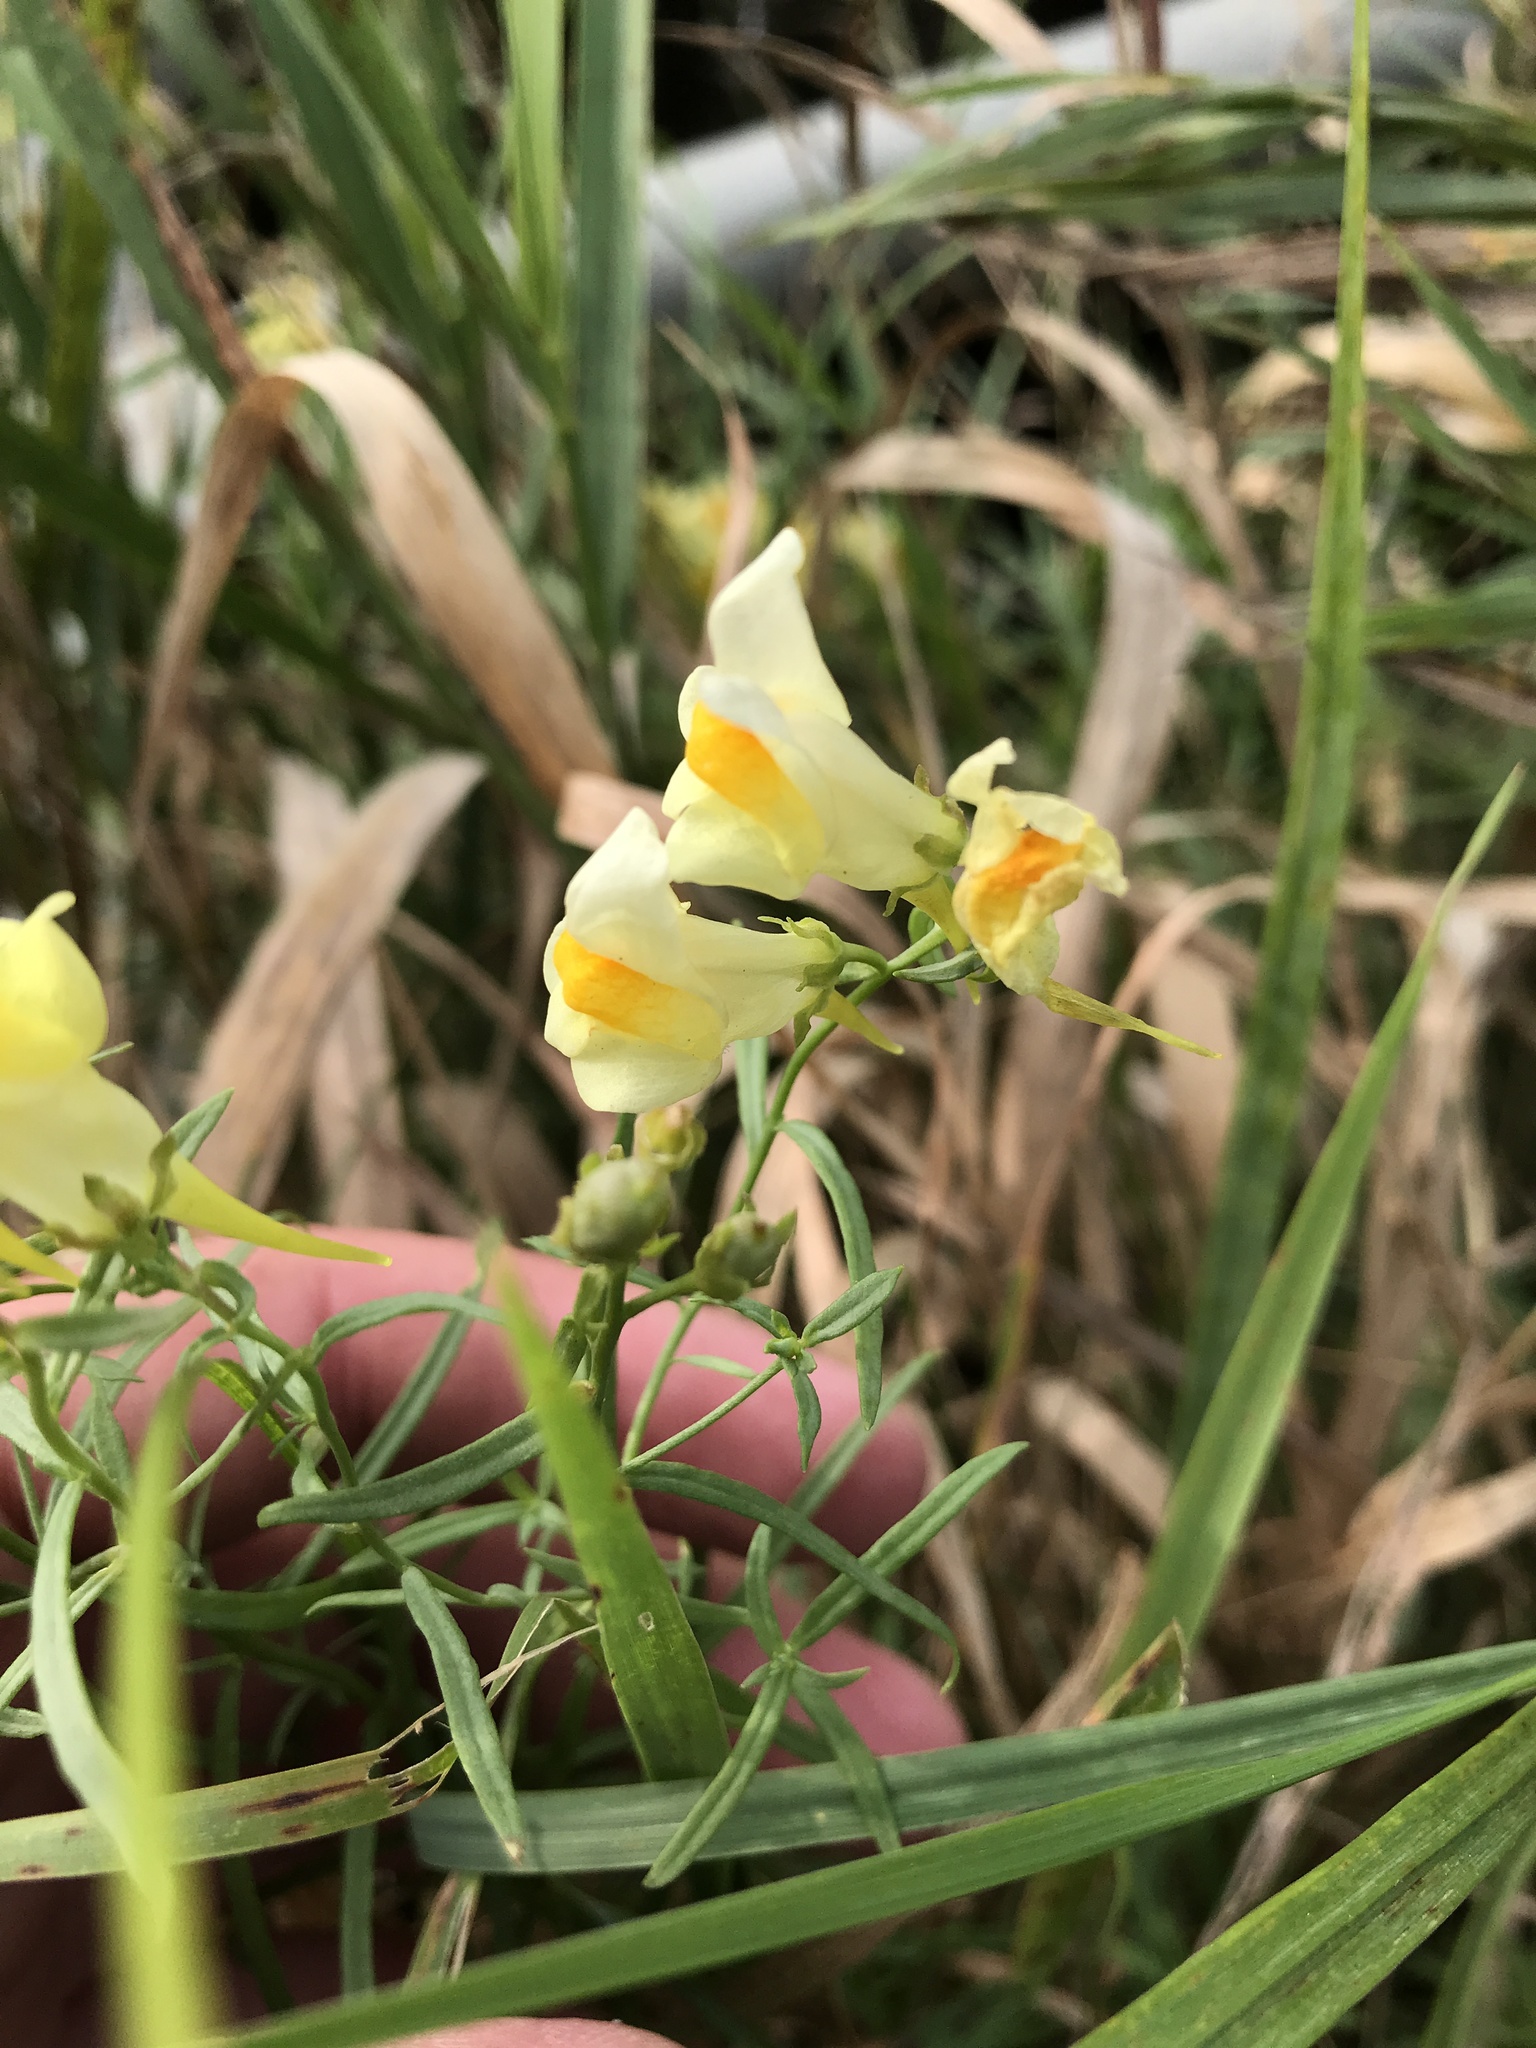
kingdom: Plantae
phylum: Tracheophyta
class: Magnoliopsida
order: Lamiales
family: Plantaginaceae
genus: Linaria
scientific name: Linaria vulgaris
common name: Butter and eggs
